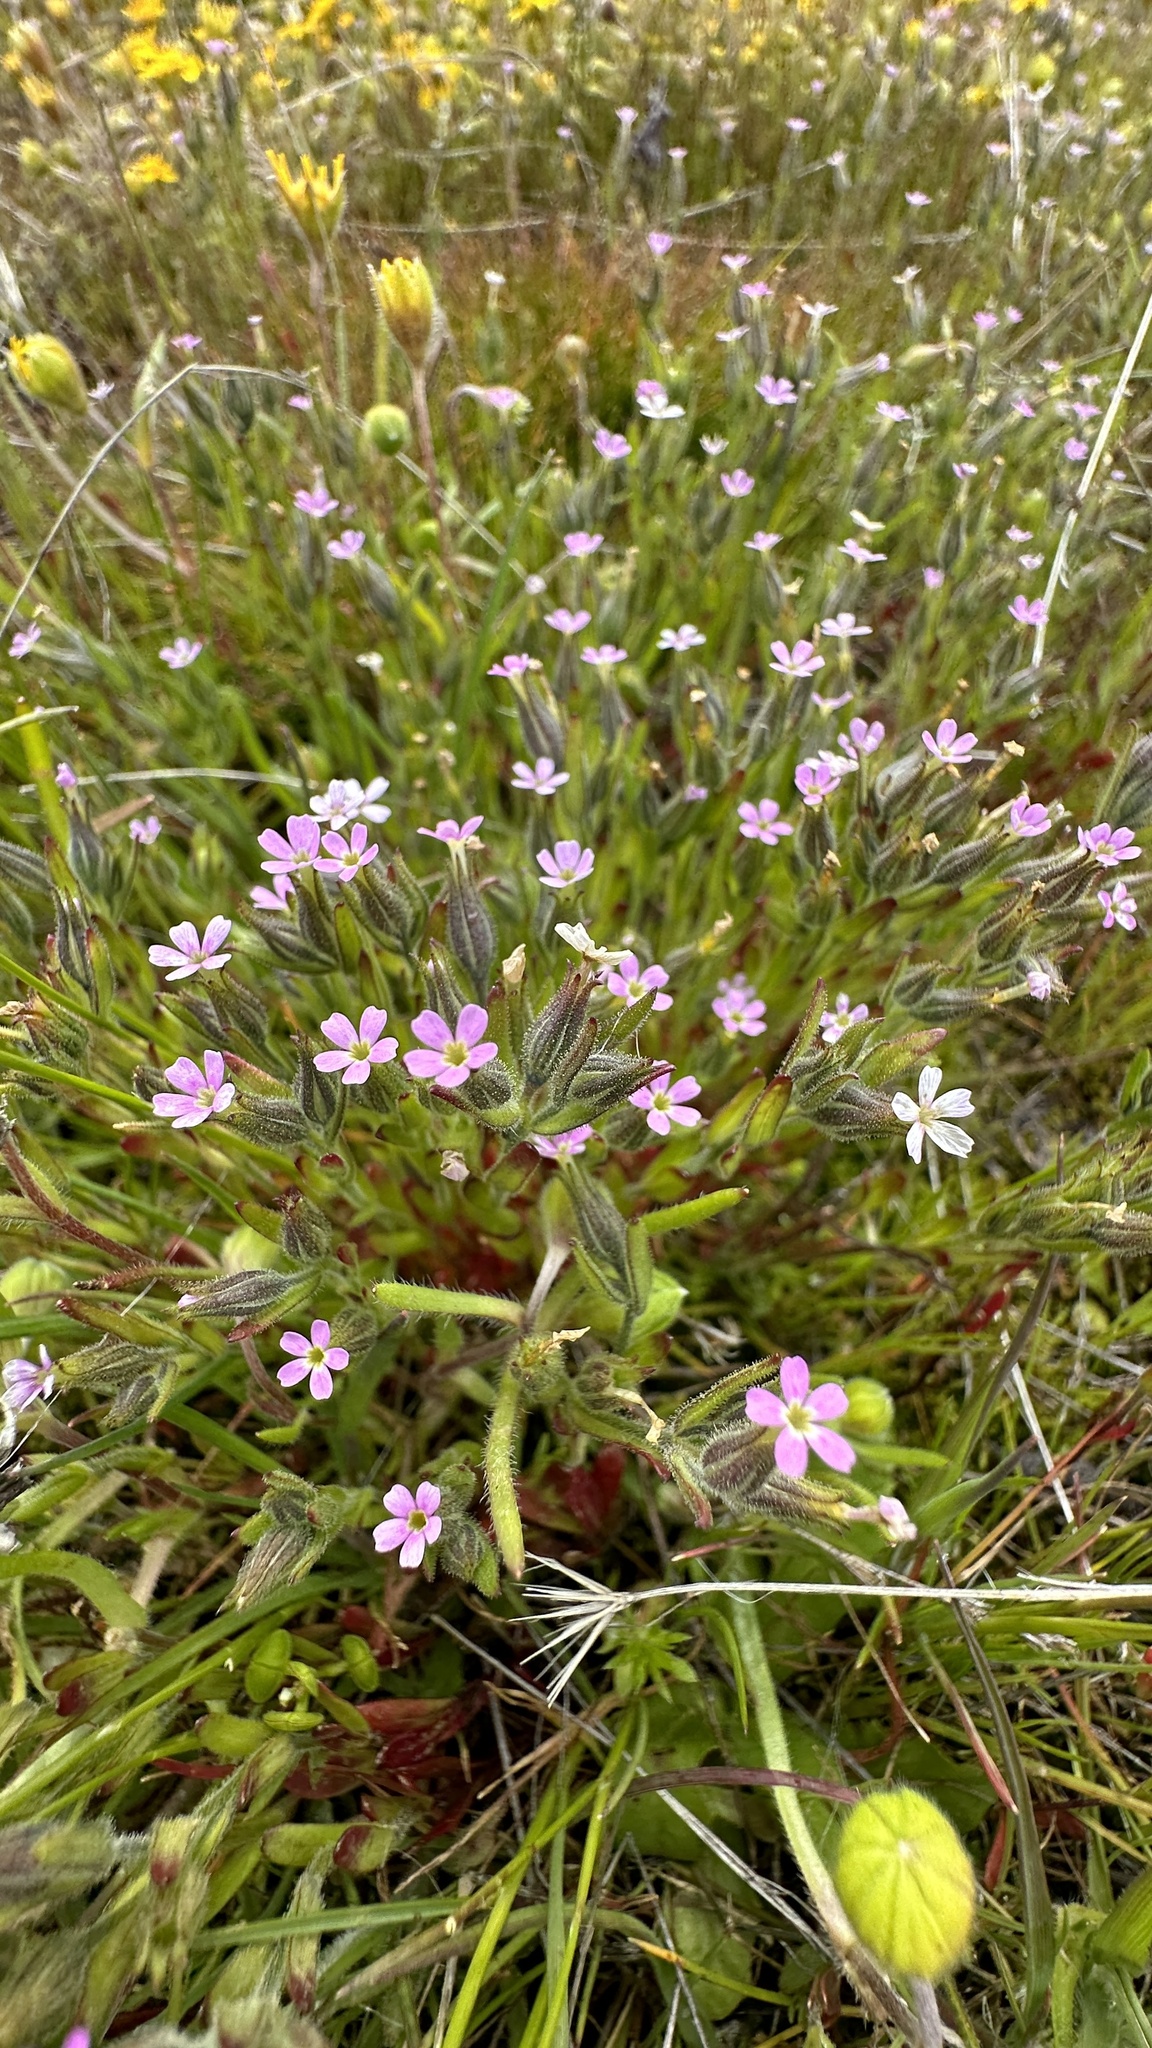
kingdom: Plantae
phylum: Tracheophyta
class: Magnoliopsida
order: Ericales
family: Polemoniaceae
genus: Phlox
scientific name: Phlox gracilis
